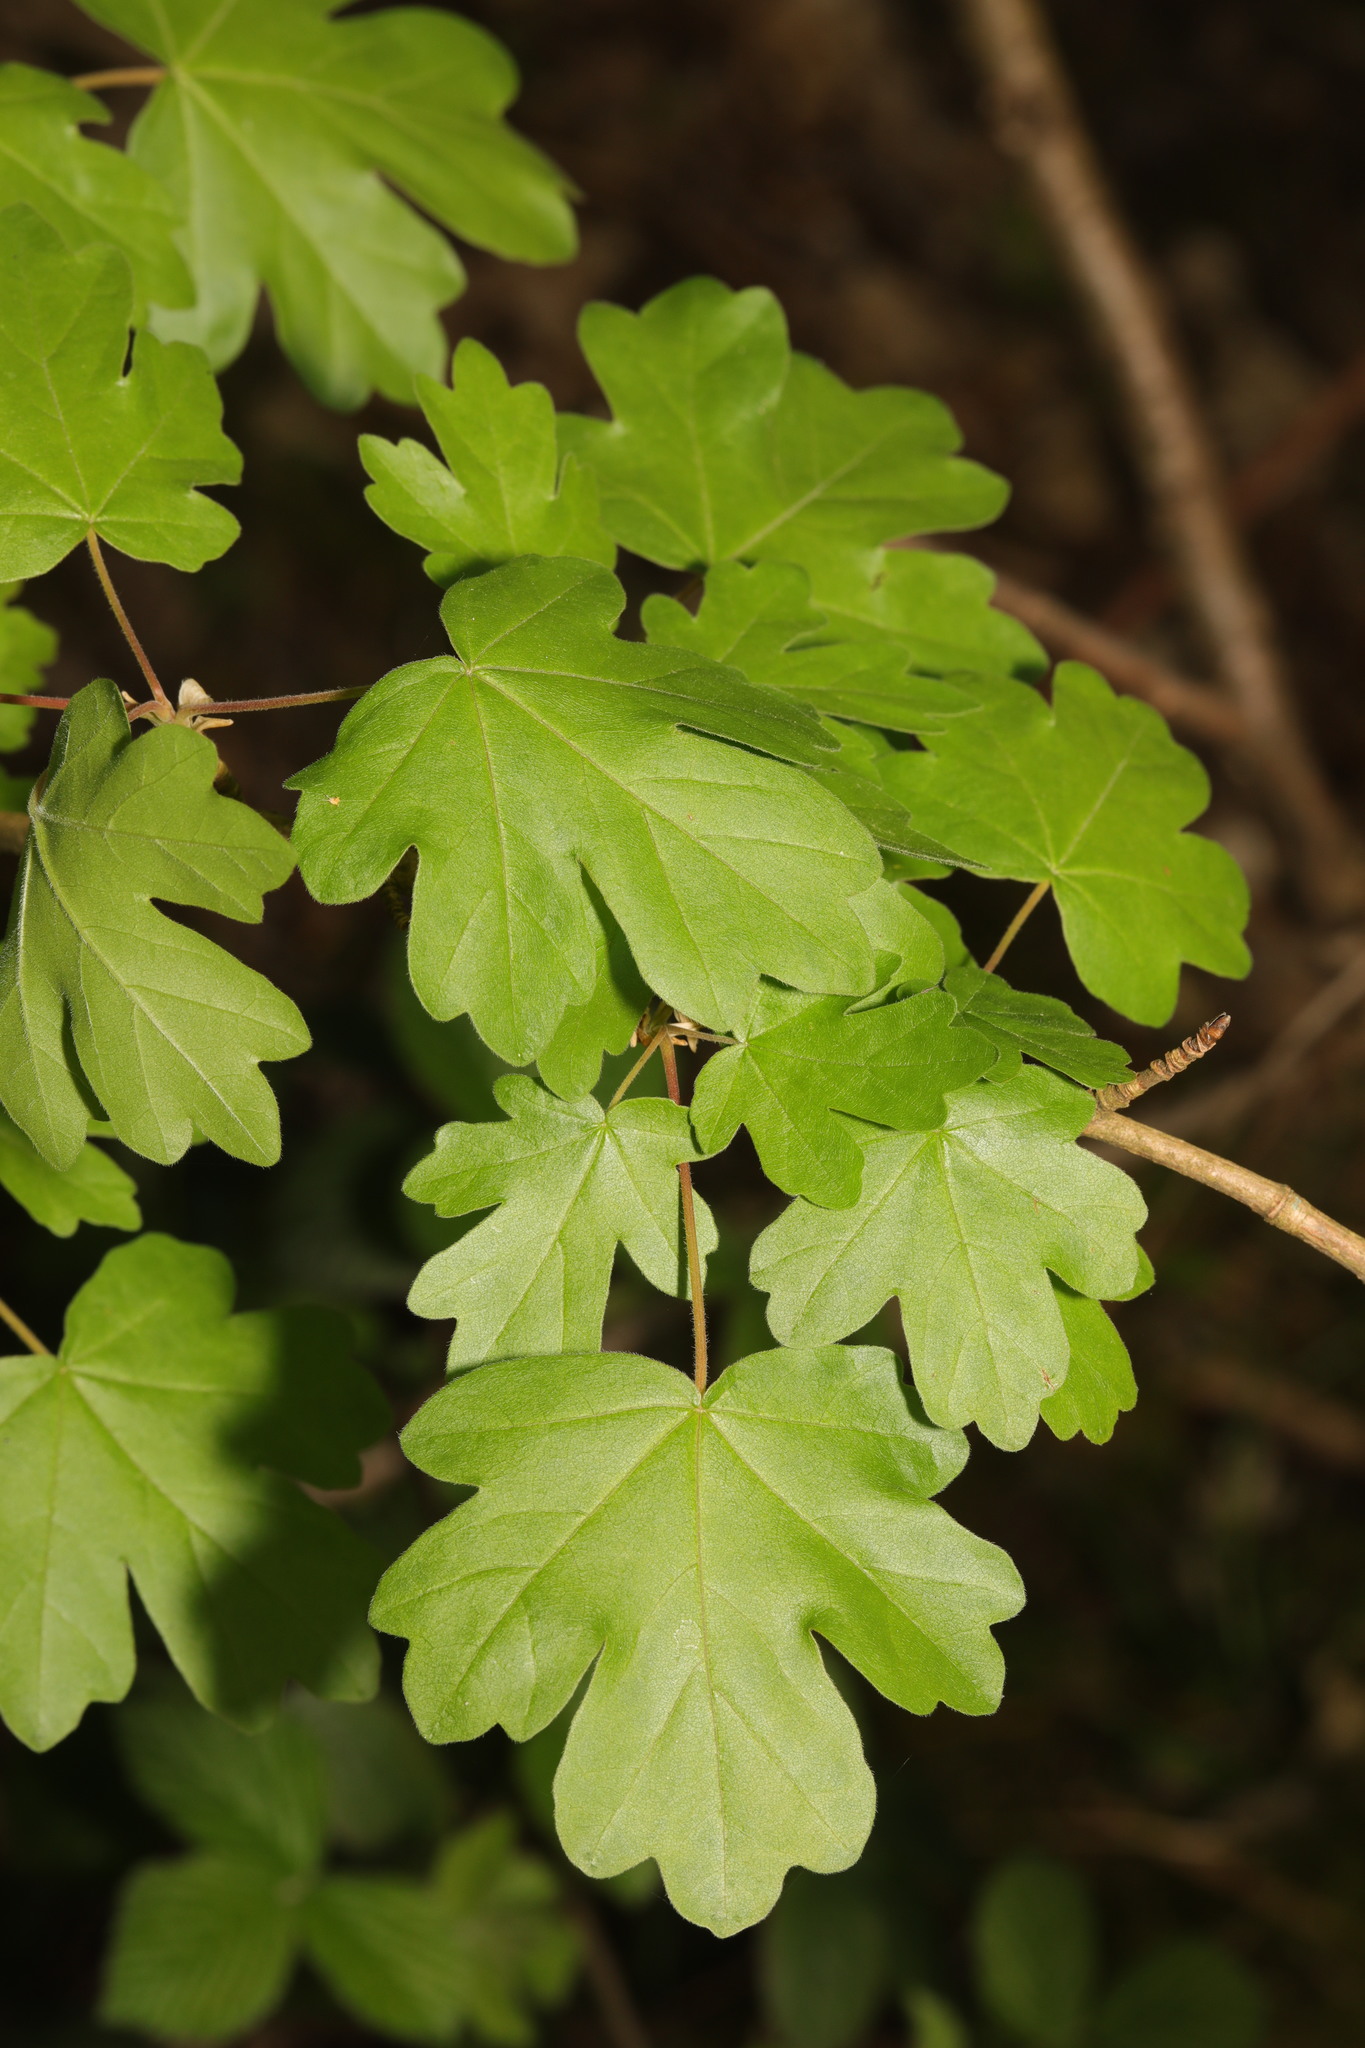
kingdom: Plantae
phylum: Tracheophyta
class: Magnoliopsida
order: Sapindales
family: Sapindaceae
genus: Acer
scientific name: Acer campestre
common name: Field maple
